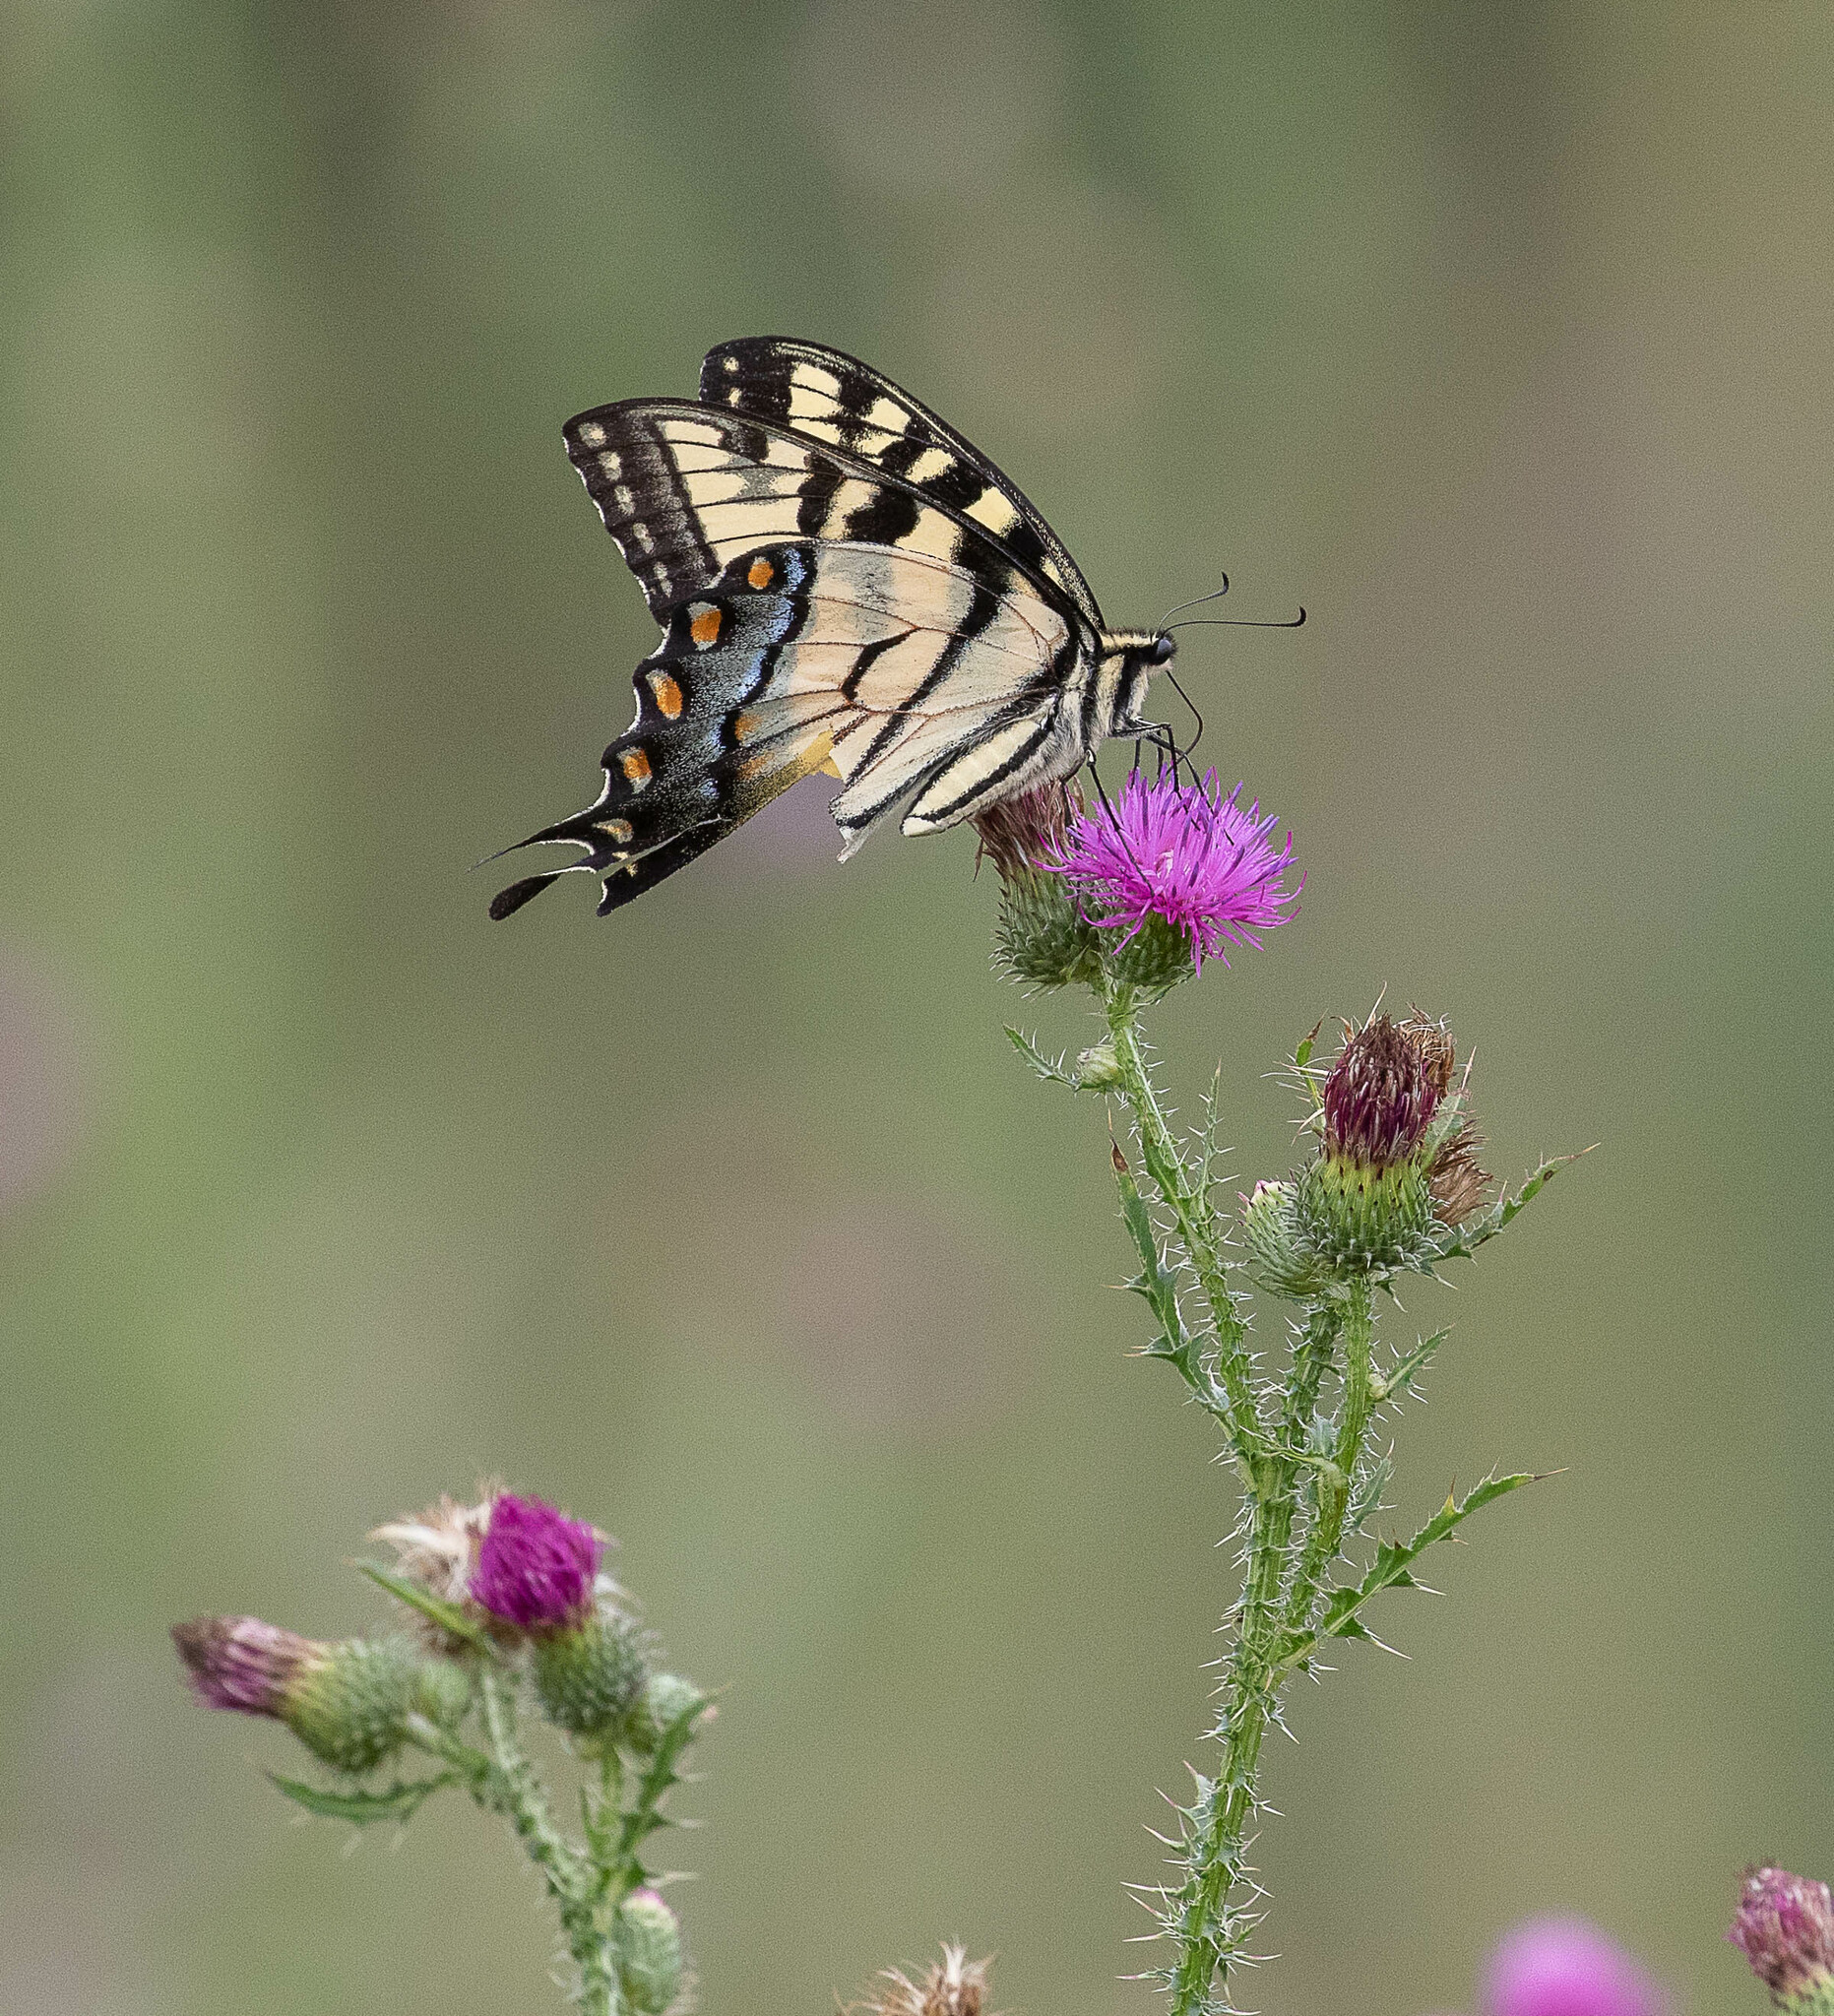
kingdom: Animalia
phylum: Arthropoda
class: Insecta
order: Lepidoptera
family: Papilionidae
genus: Papilio
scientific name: Papilio glaucus
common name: Tiger swallowtail
